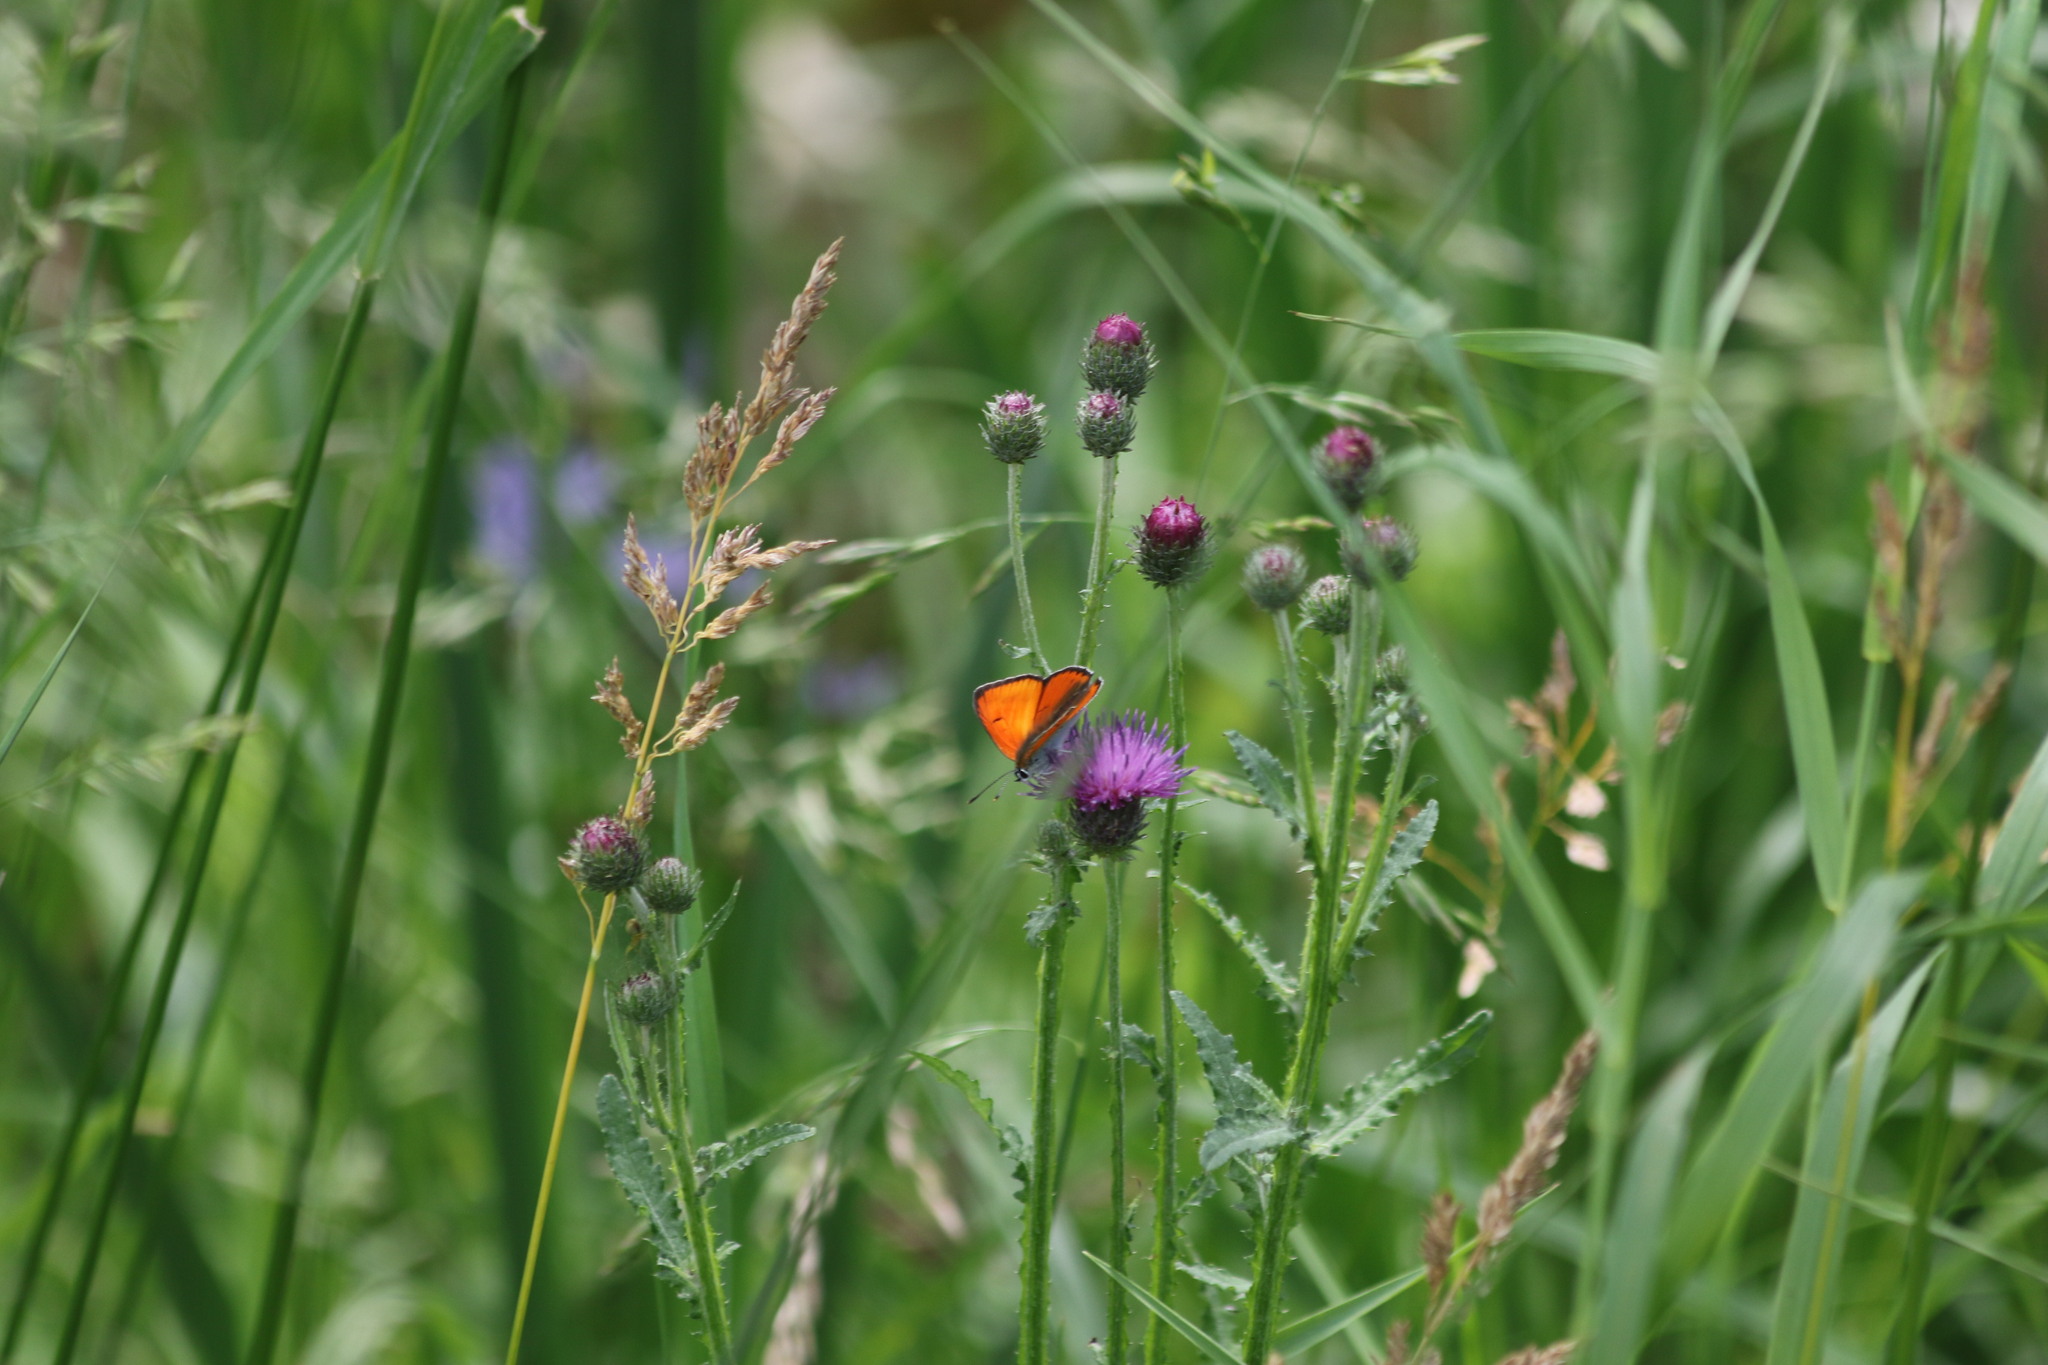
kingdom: Animalia
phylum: Arthropoda
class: Insecta
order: Lepidoptera
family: Lycaenidae
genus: Lycaena
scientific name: Lycaena dispar
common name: Large copper
